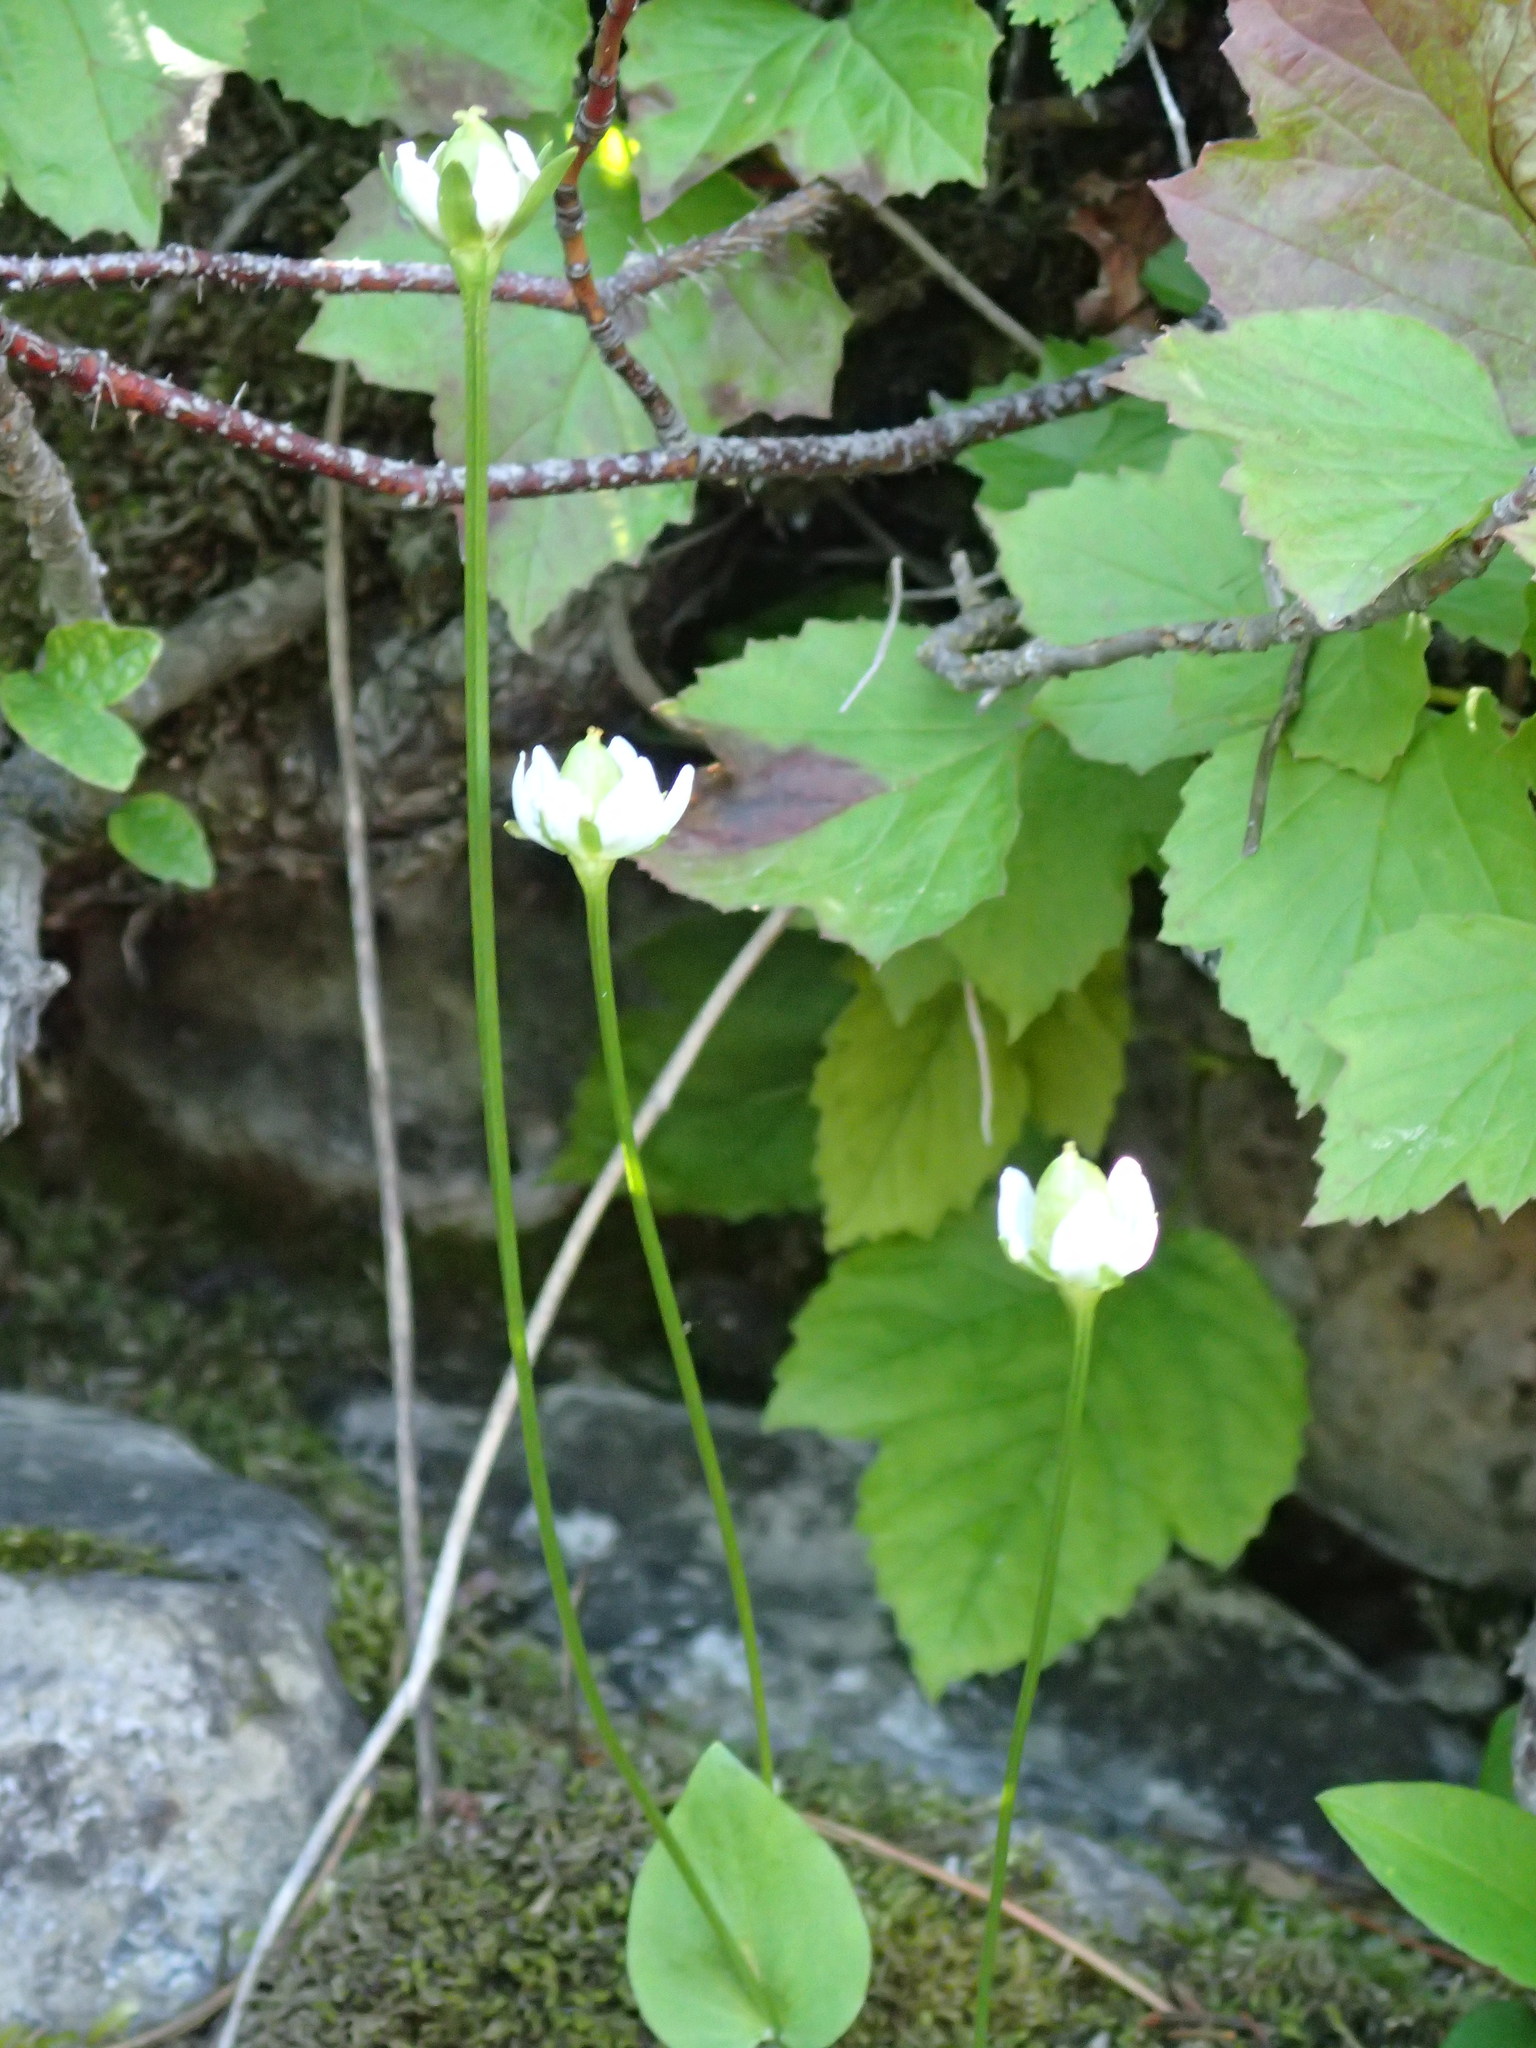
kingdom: Plantae
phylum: Tracheophyta
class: Magnoliopsida
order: Celastrales
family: Parnassiaceae
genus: Parnassia
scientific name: Parnassia palustris
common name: Grass-of-parnassus
